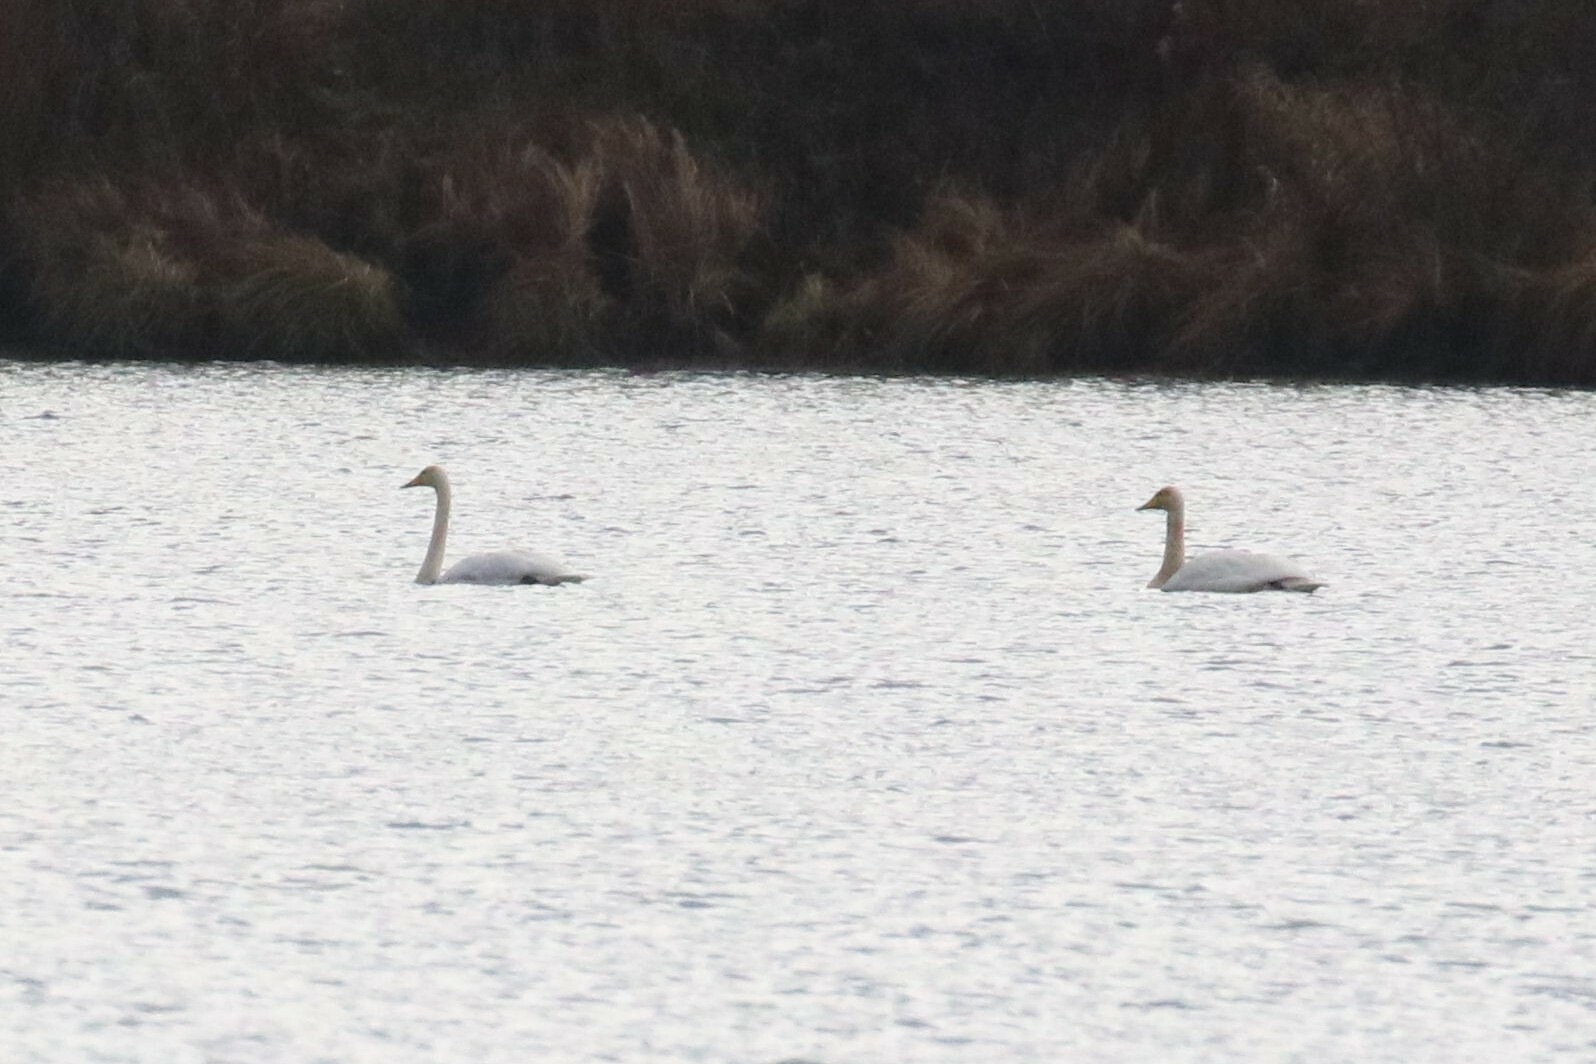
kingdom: Animalia
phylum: Chordata
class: Aves
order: Anseriformes
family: Anatidae
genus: Cygnus
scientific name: Cygnus cygnus
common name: Whooper swan
